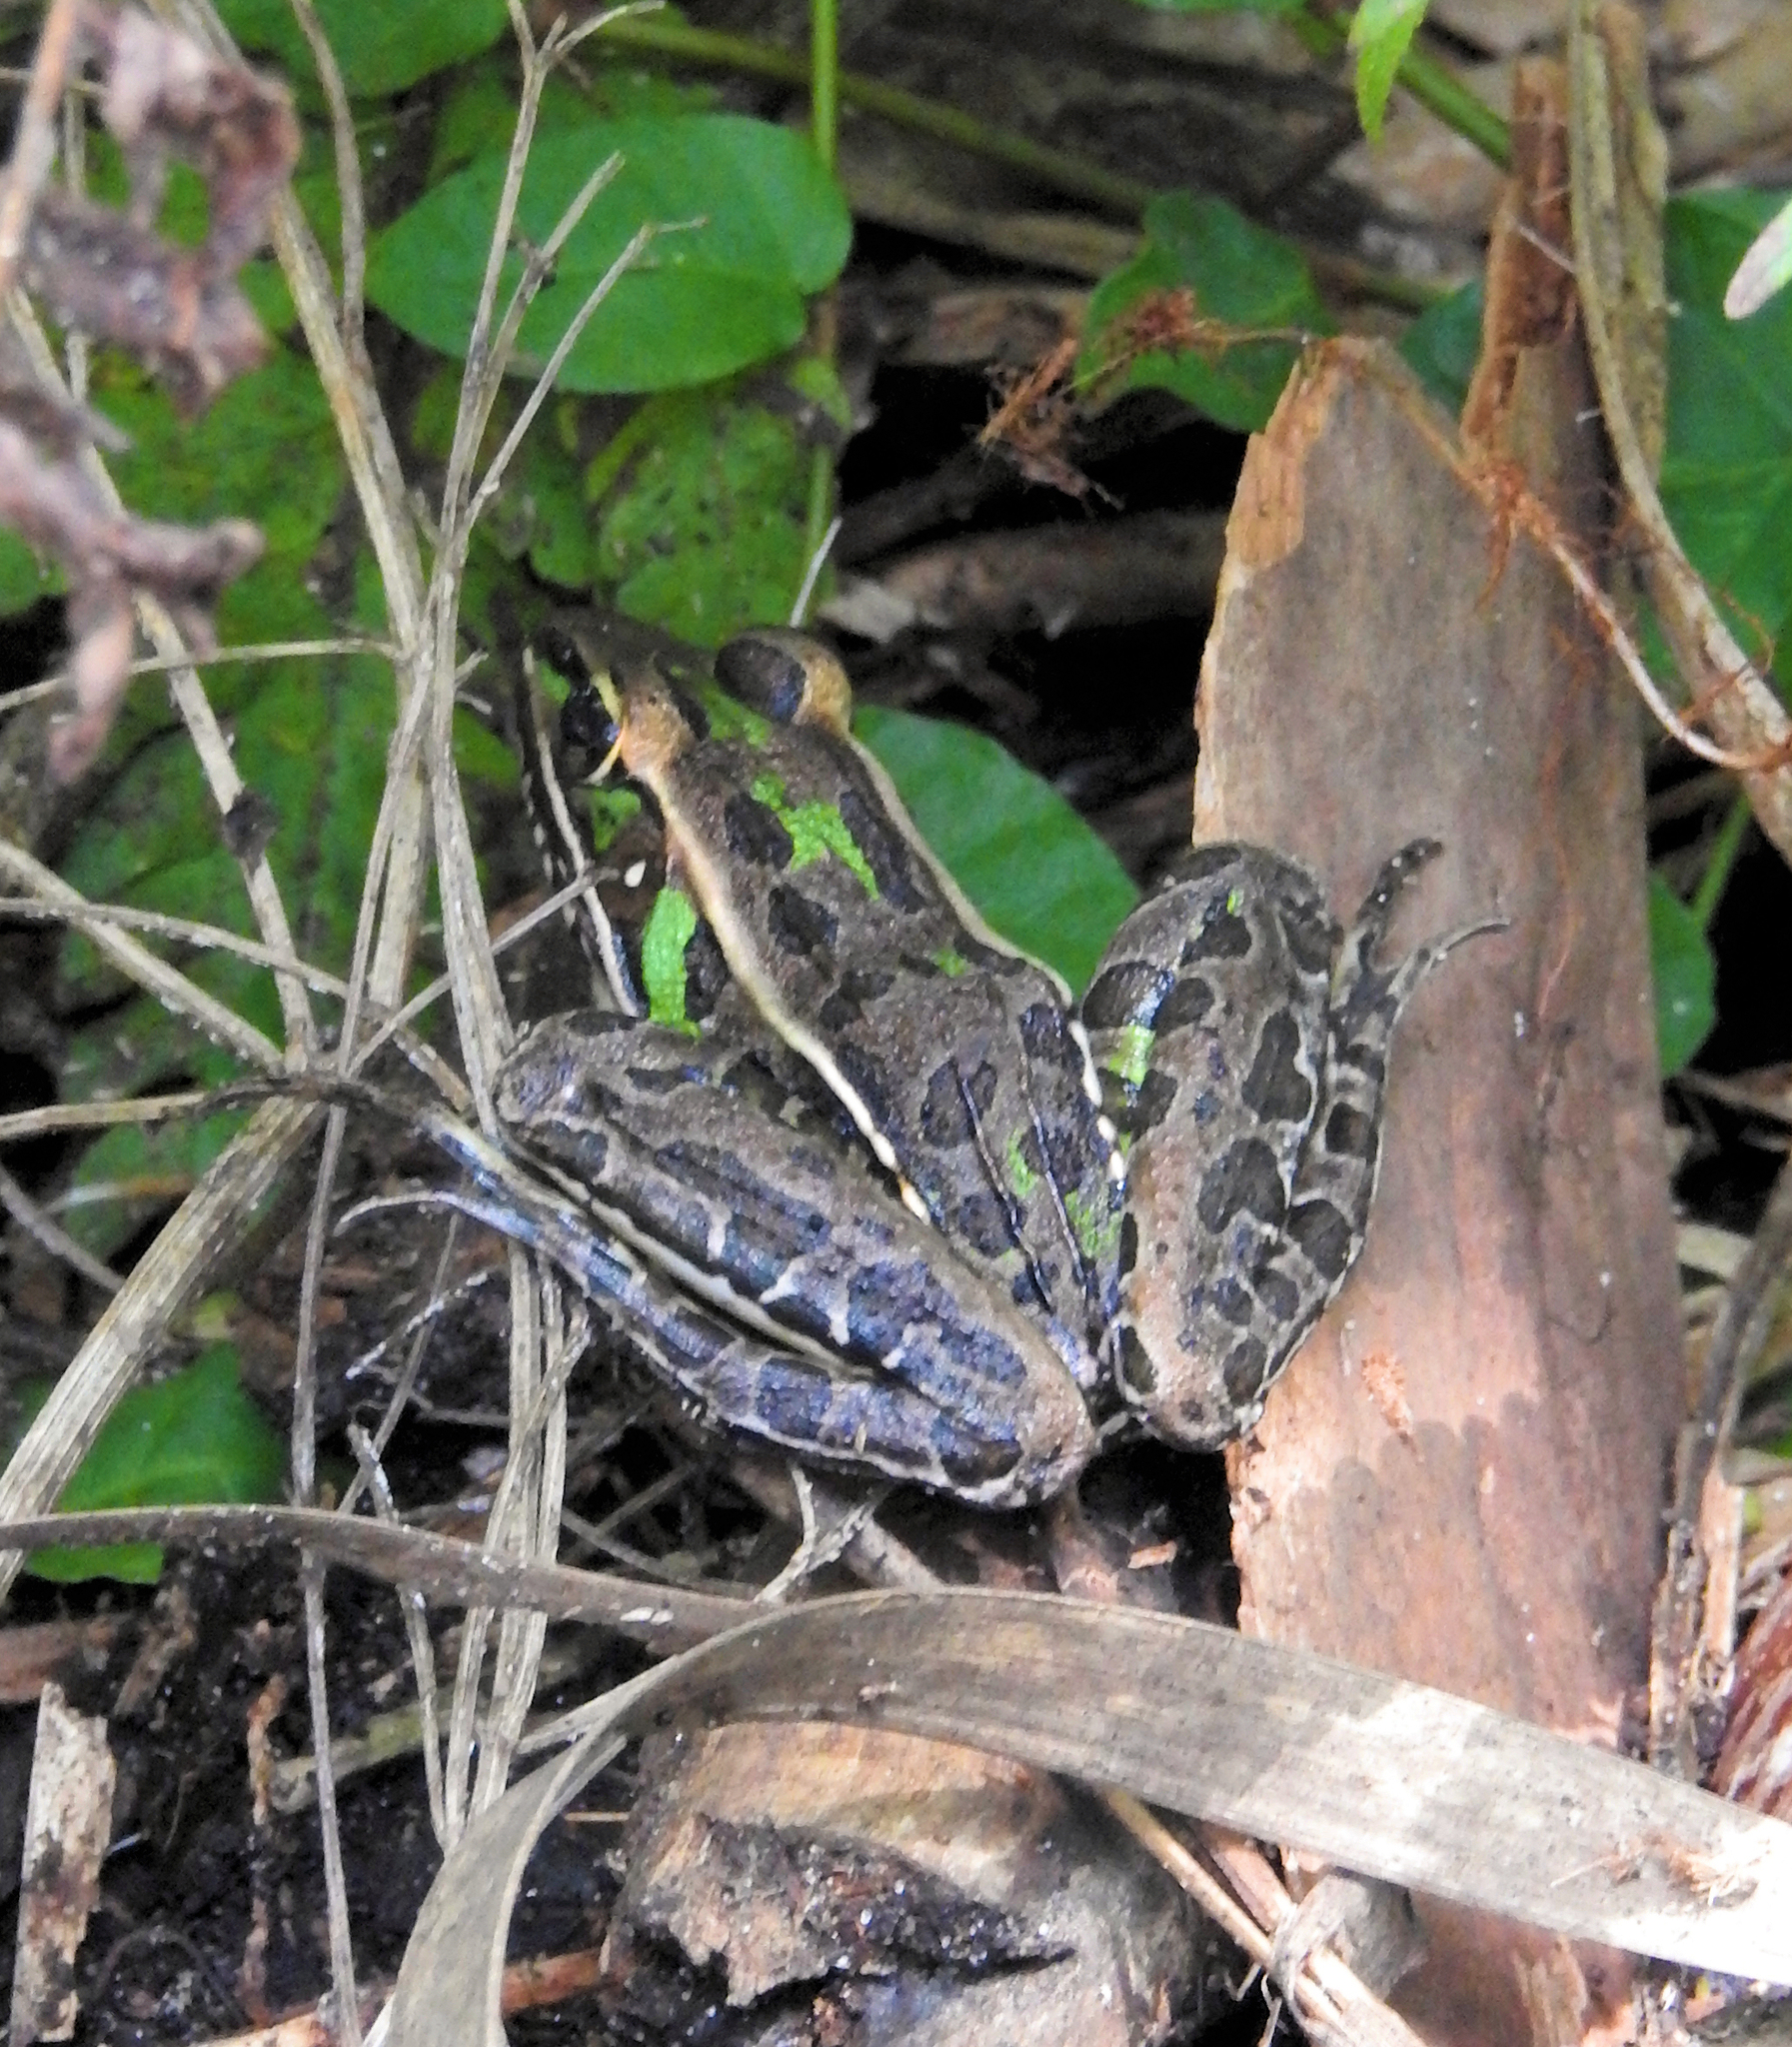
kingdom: Animalia
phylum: Chordata
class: Amphibia
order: Anura
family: Ranidae
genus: Lithobates
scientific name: Lithobates sphenocephalus
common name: Southern leopard frog
